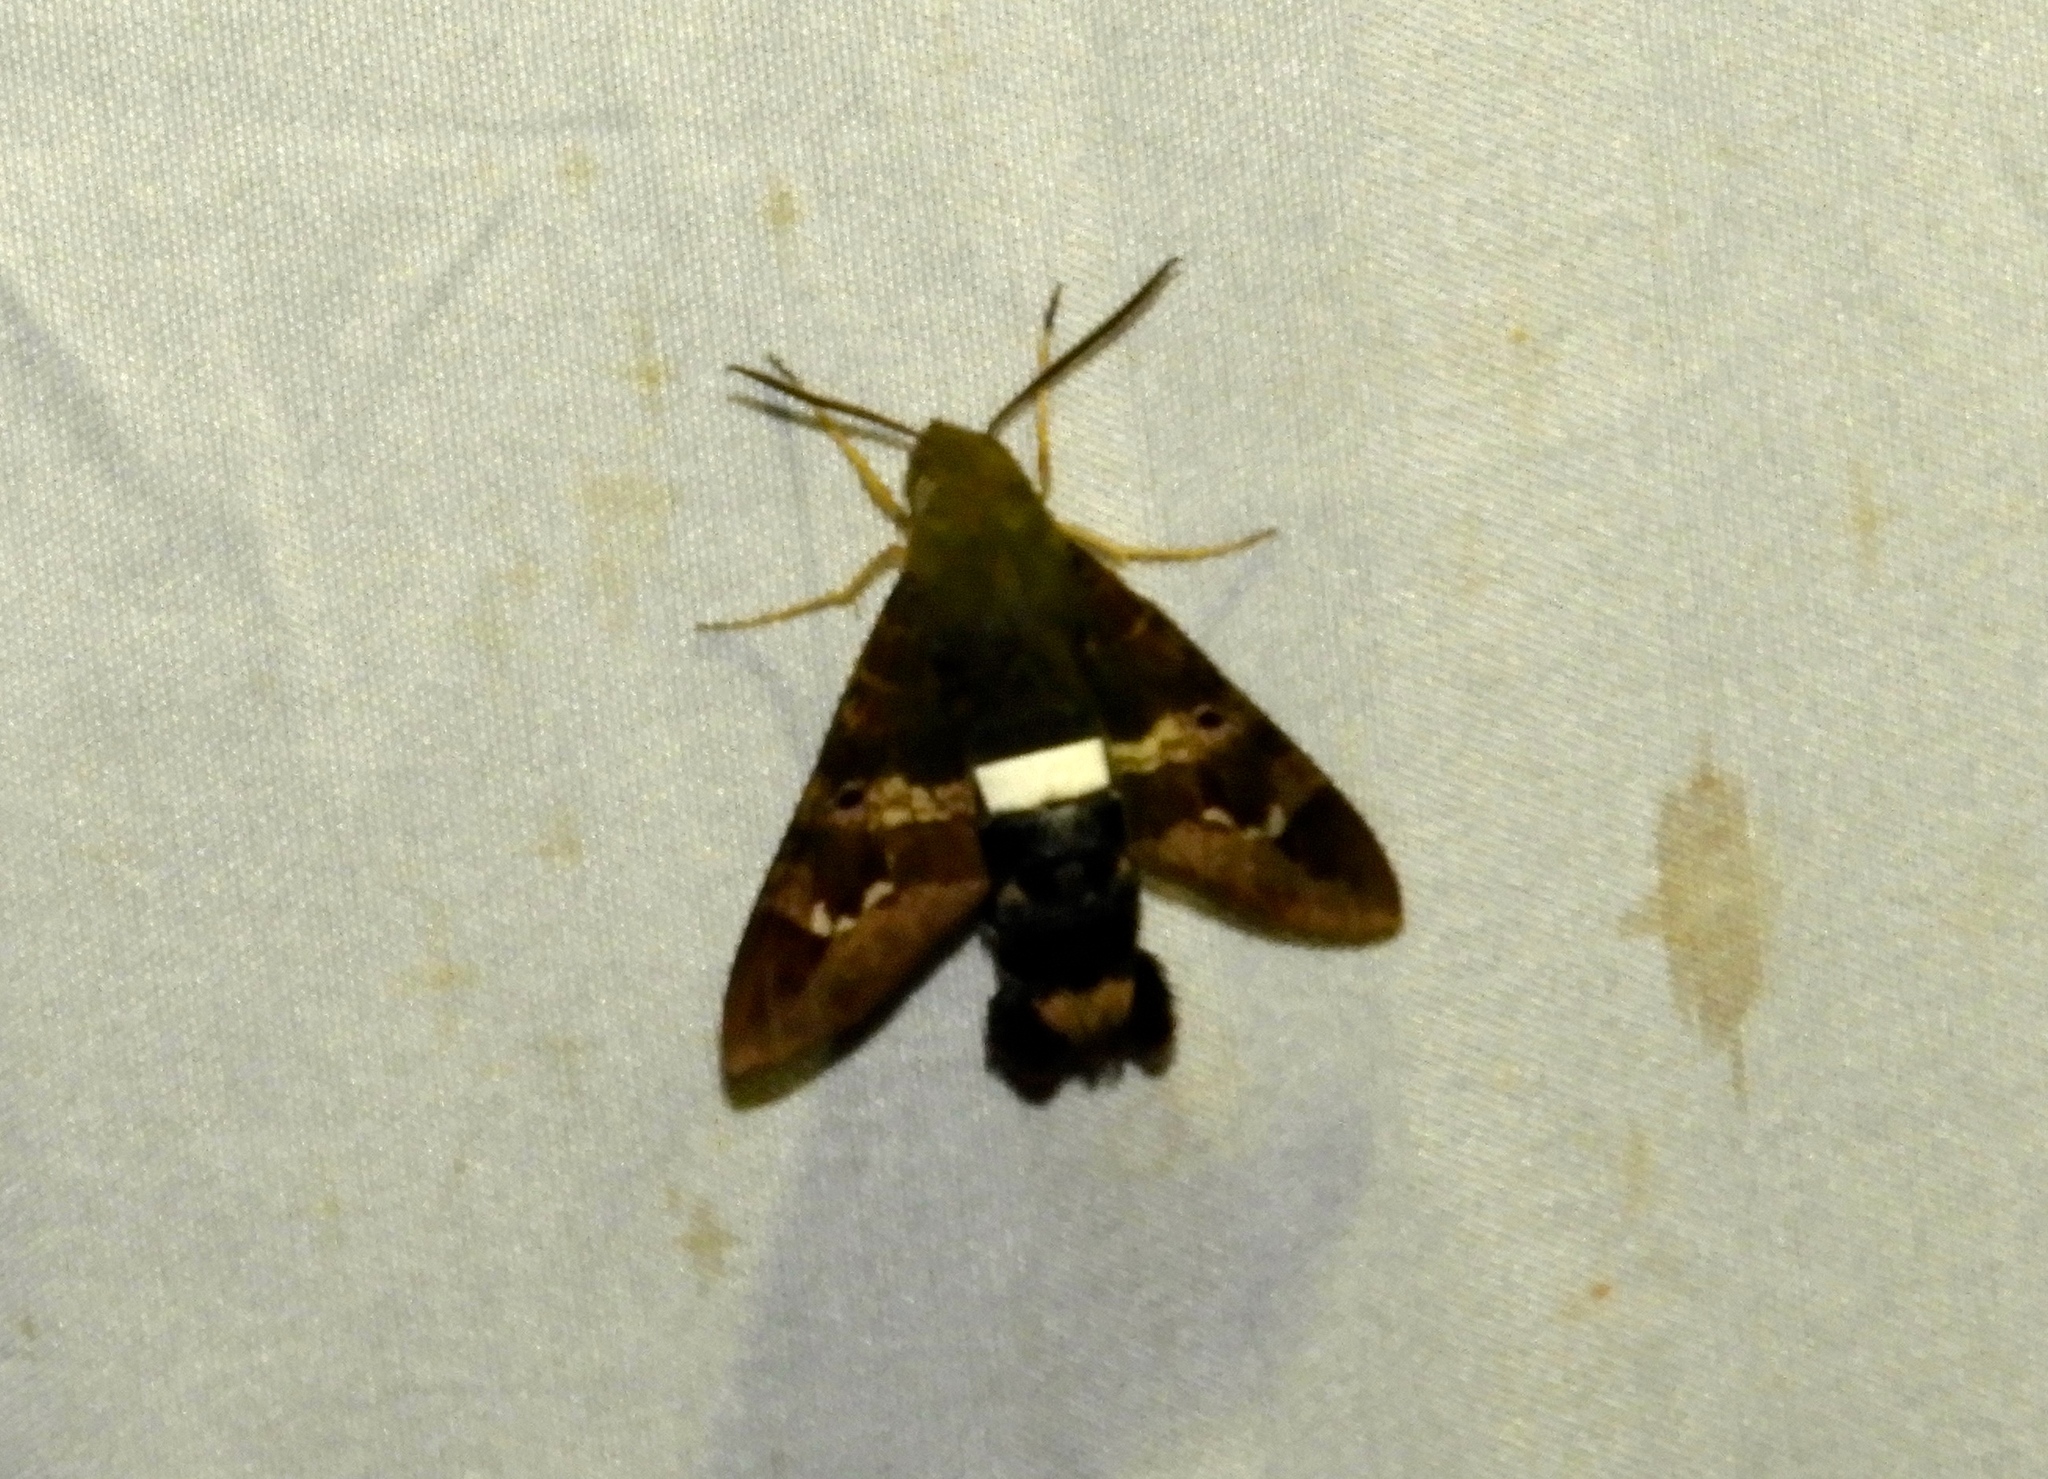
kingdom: Animalia
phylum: Arthropoda
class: Insecta
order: Lepidoptera
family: Sphingidae
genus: Aellopos
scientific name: Aellopos clavipes
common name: Clavipes sphinx
